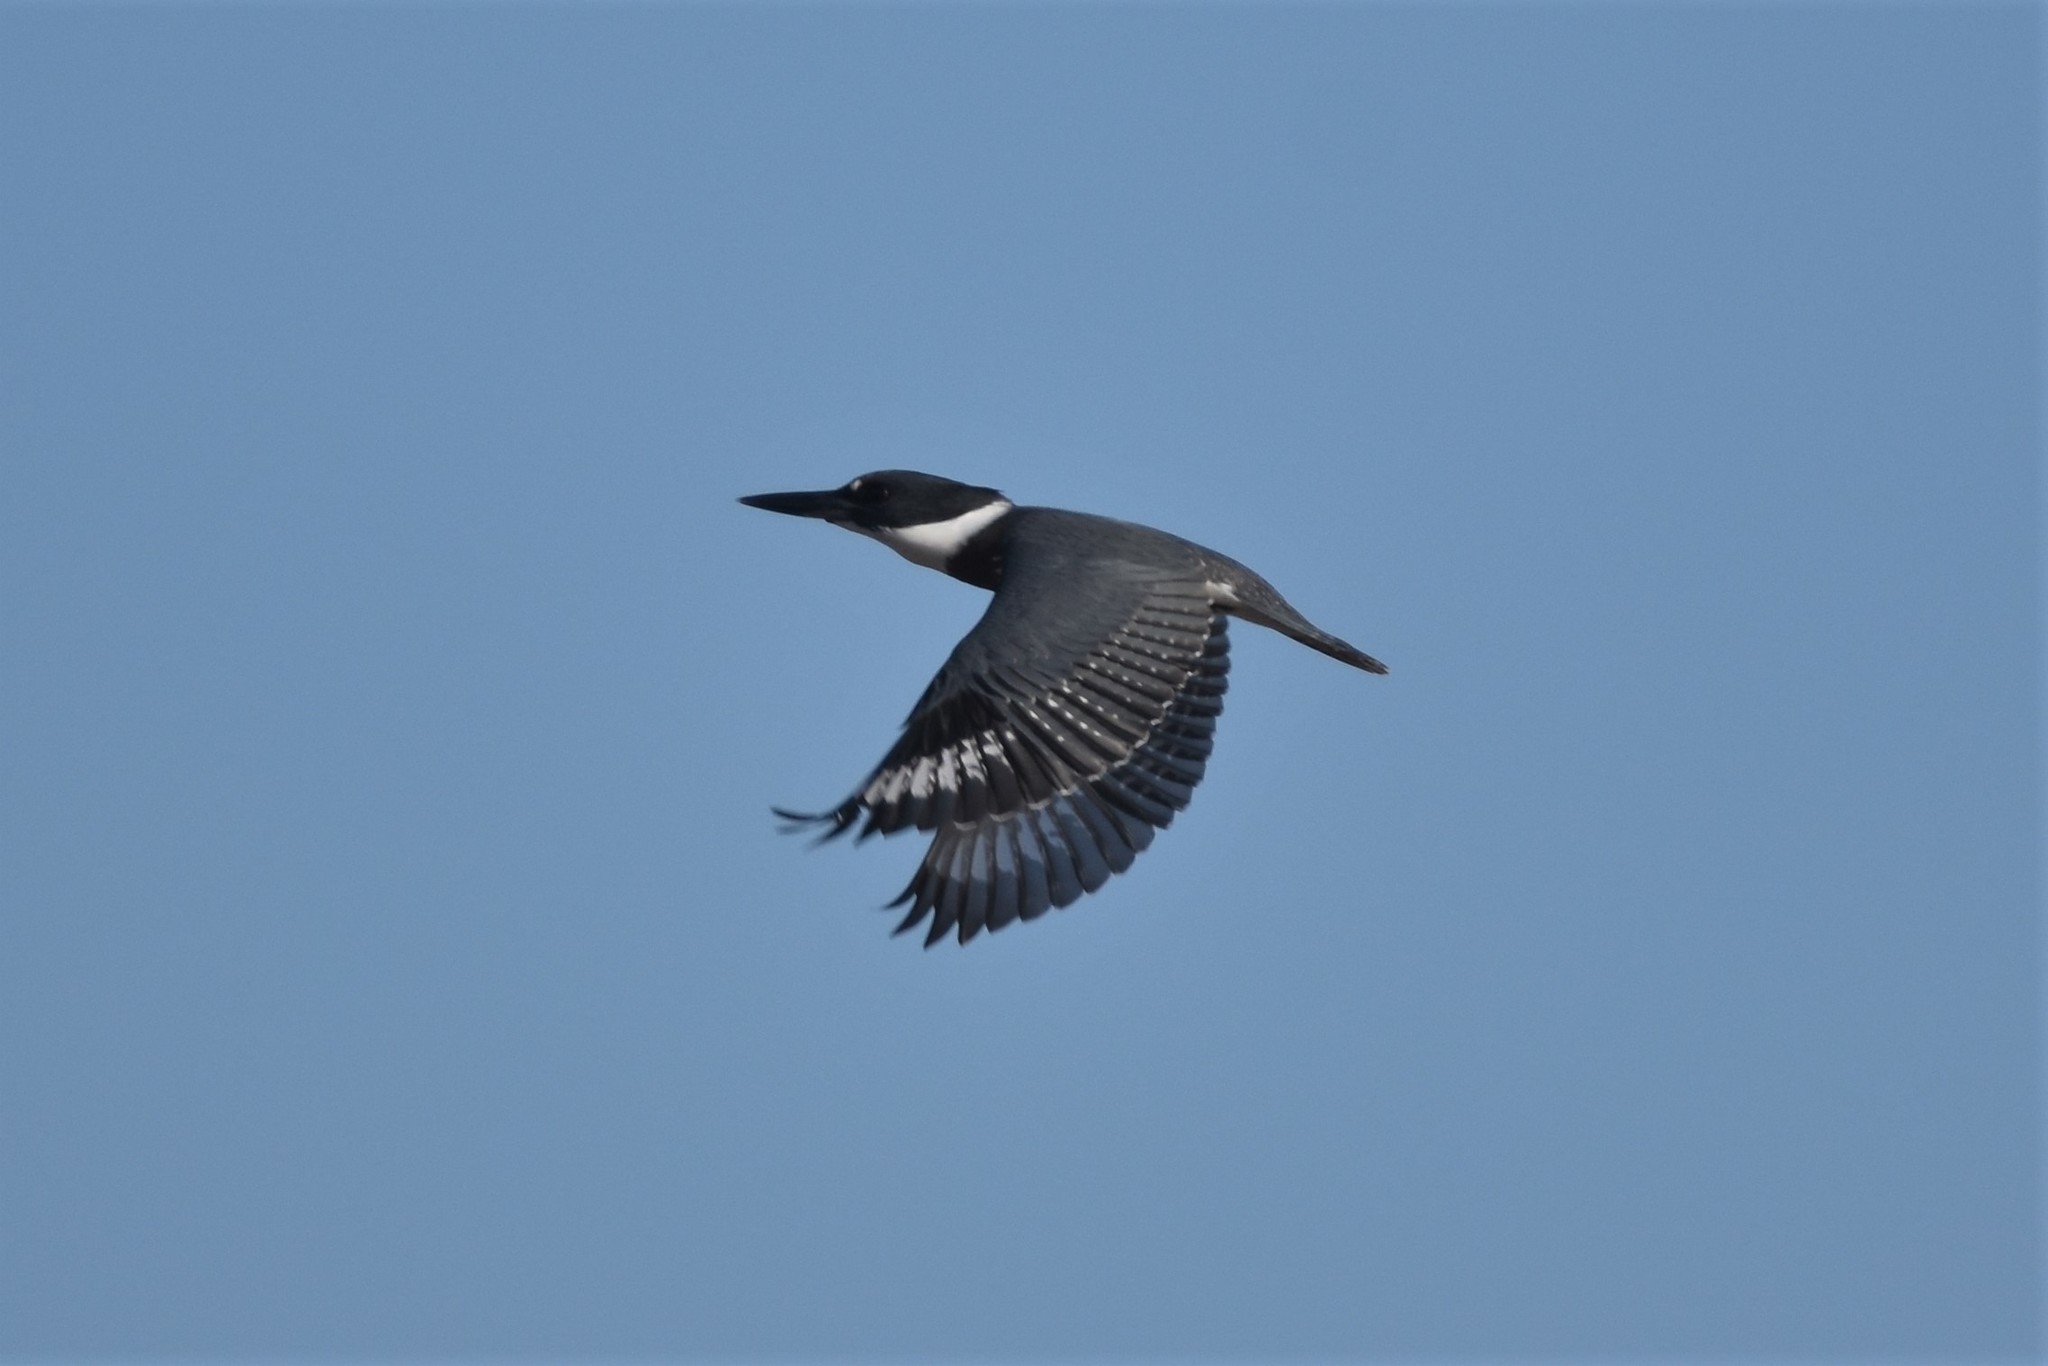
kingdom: Animalia
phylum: Chordata
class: Aves
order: Coraciiformes
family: Alcedinidae
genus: Megaceryle
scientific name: Megaceryle alcyon
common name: Belted kingfisher
